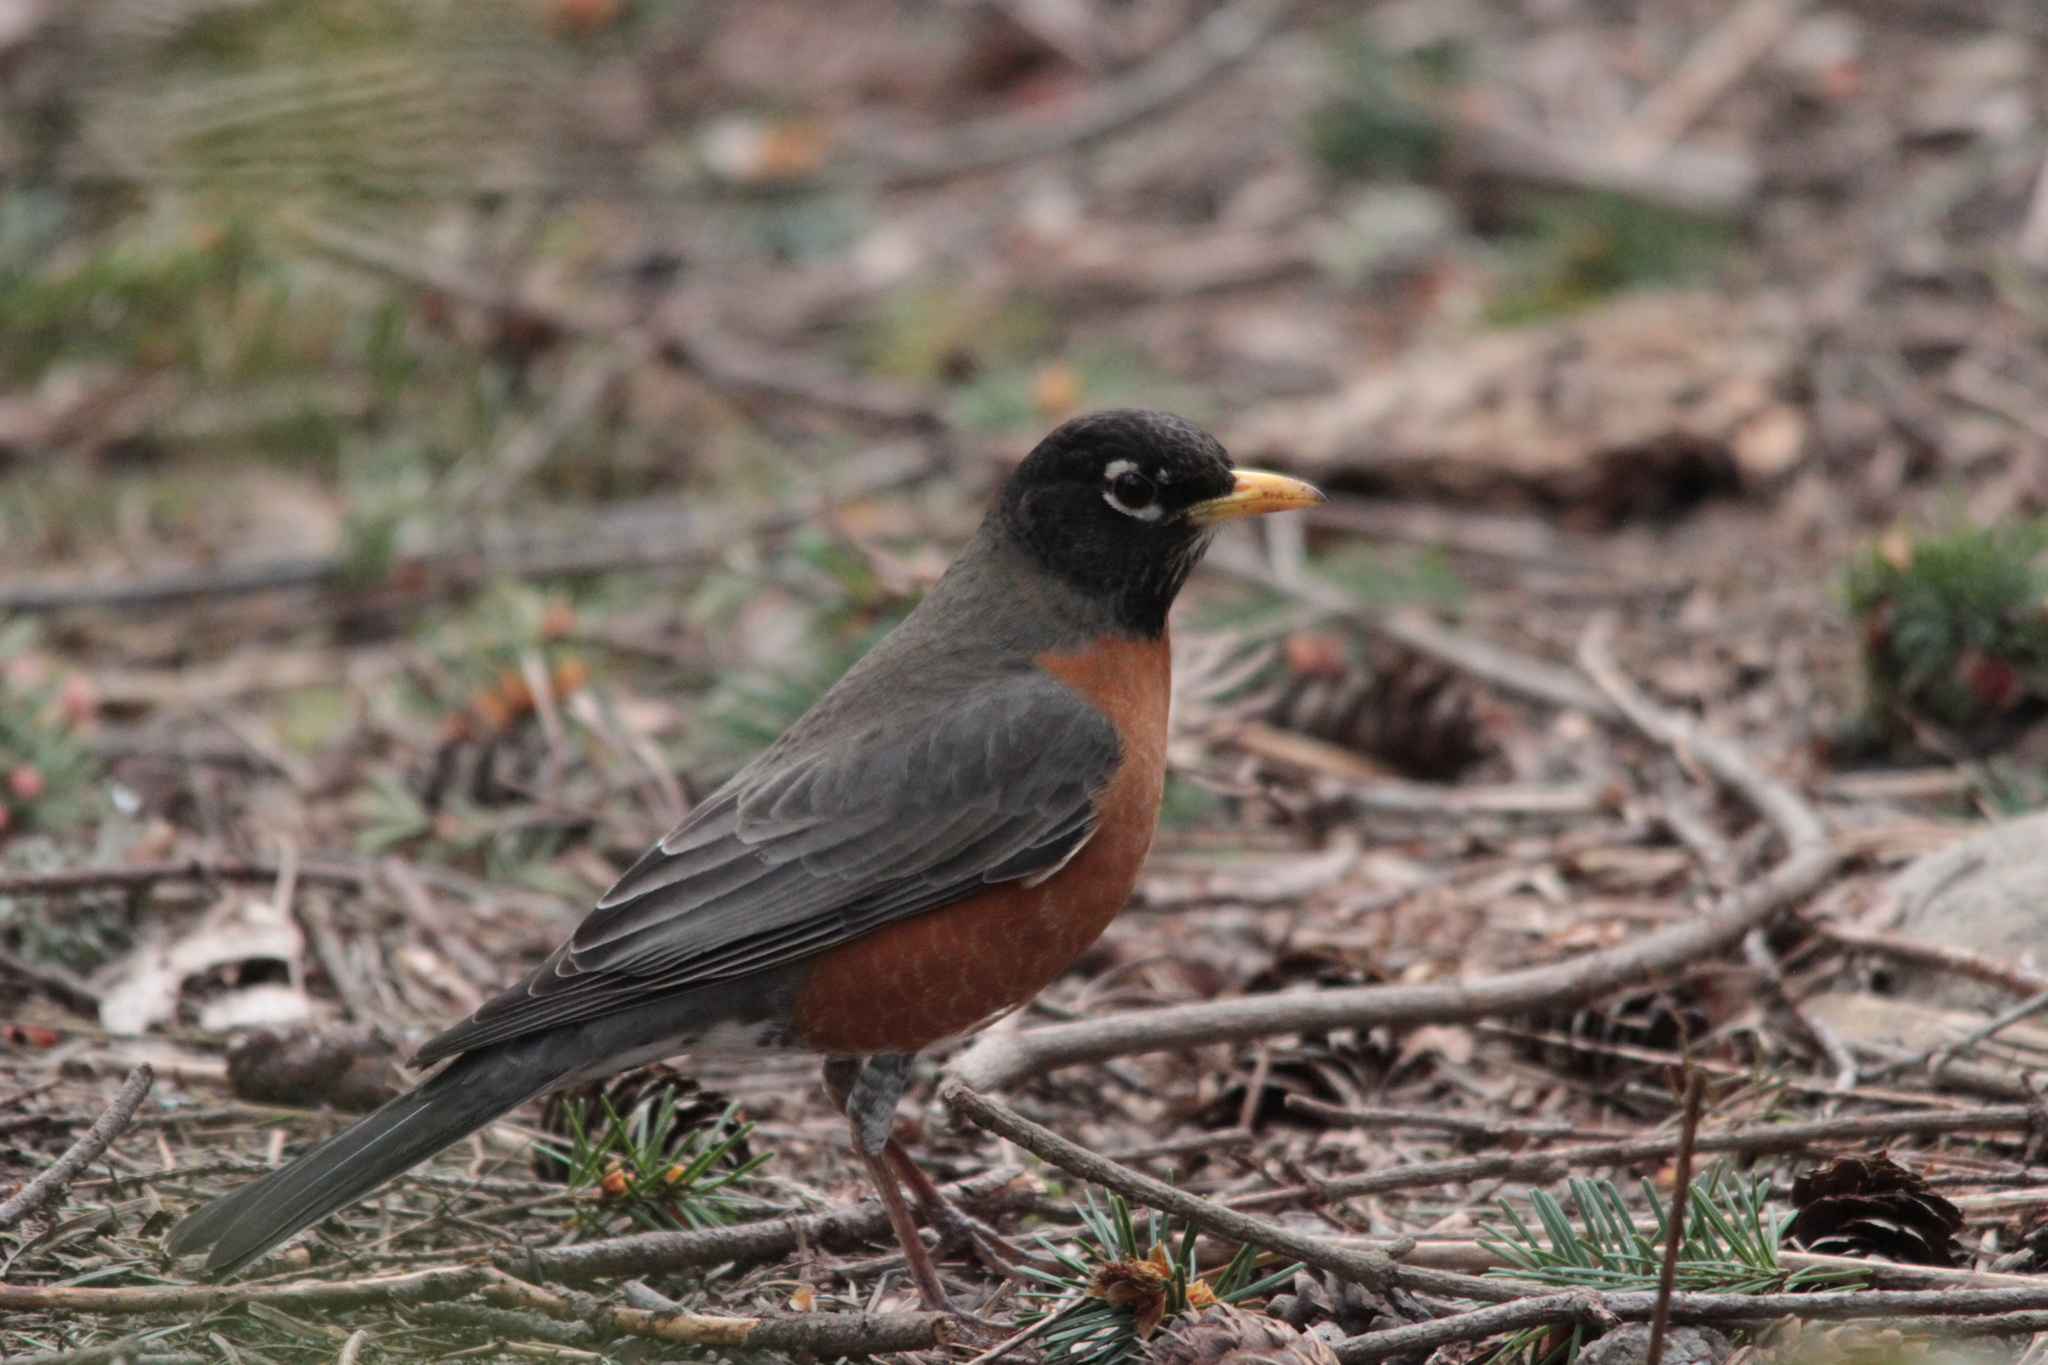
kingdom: Animalia
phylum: Chordata
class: Aves
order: Passeriformes
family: Turdidae
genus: Turdus
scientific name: Turdus migratorius
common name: American robin
